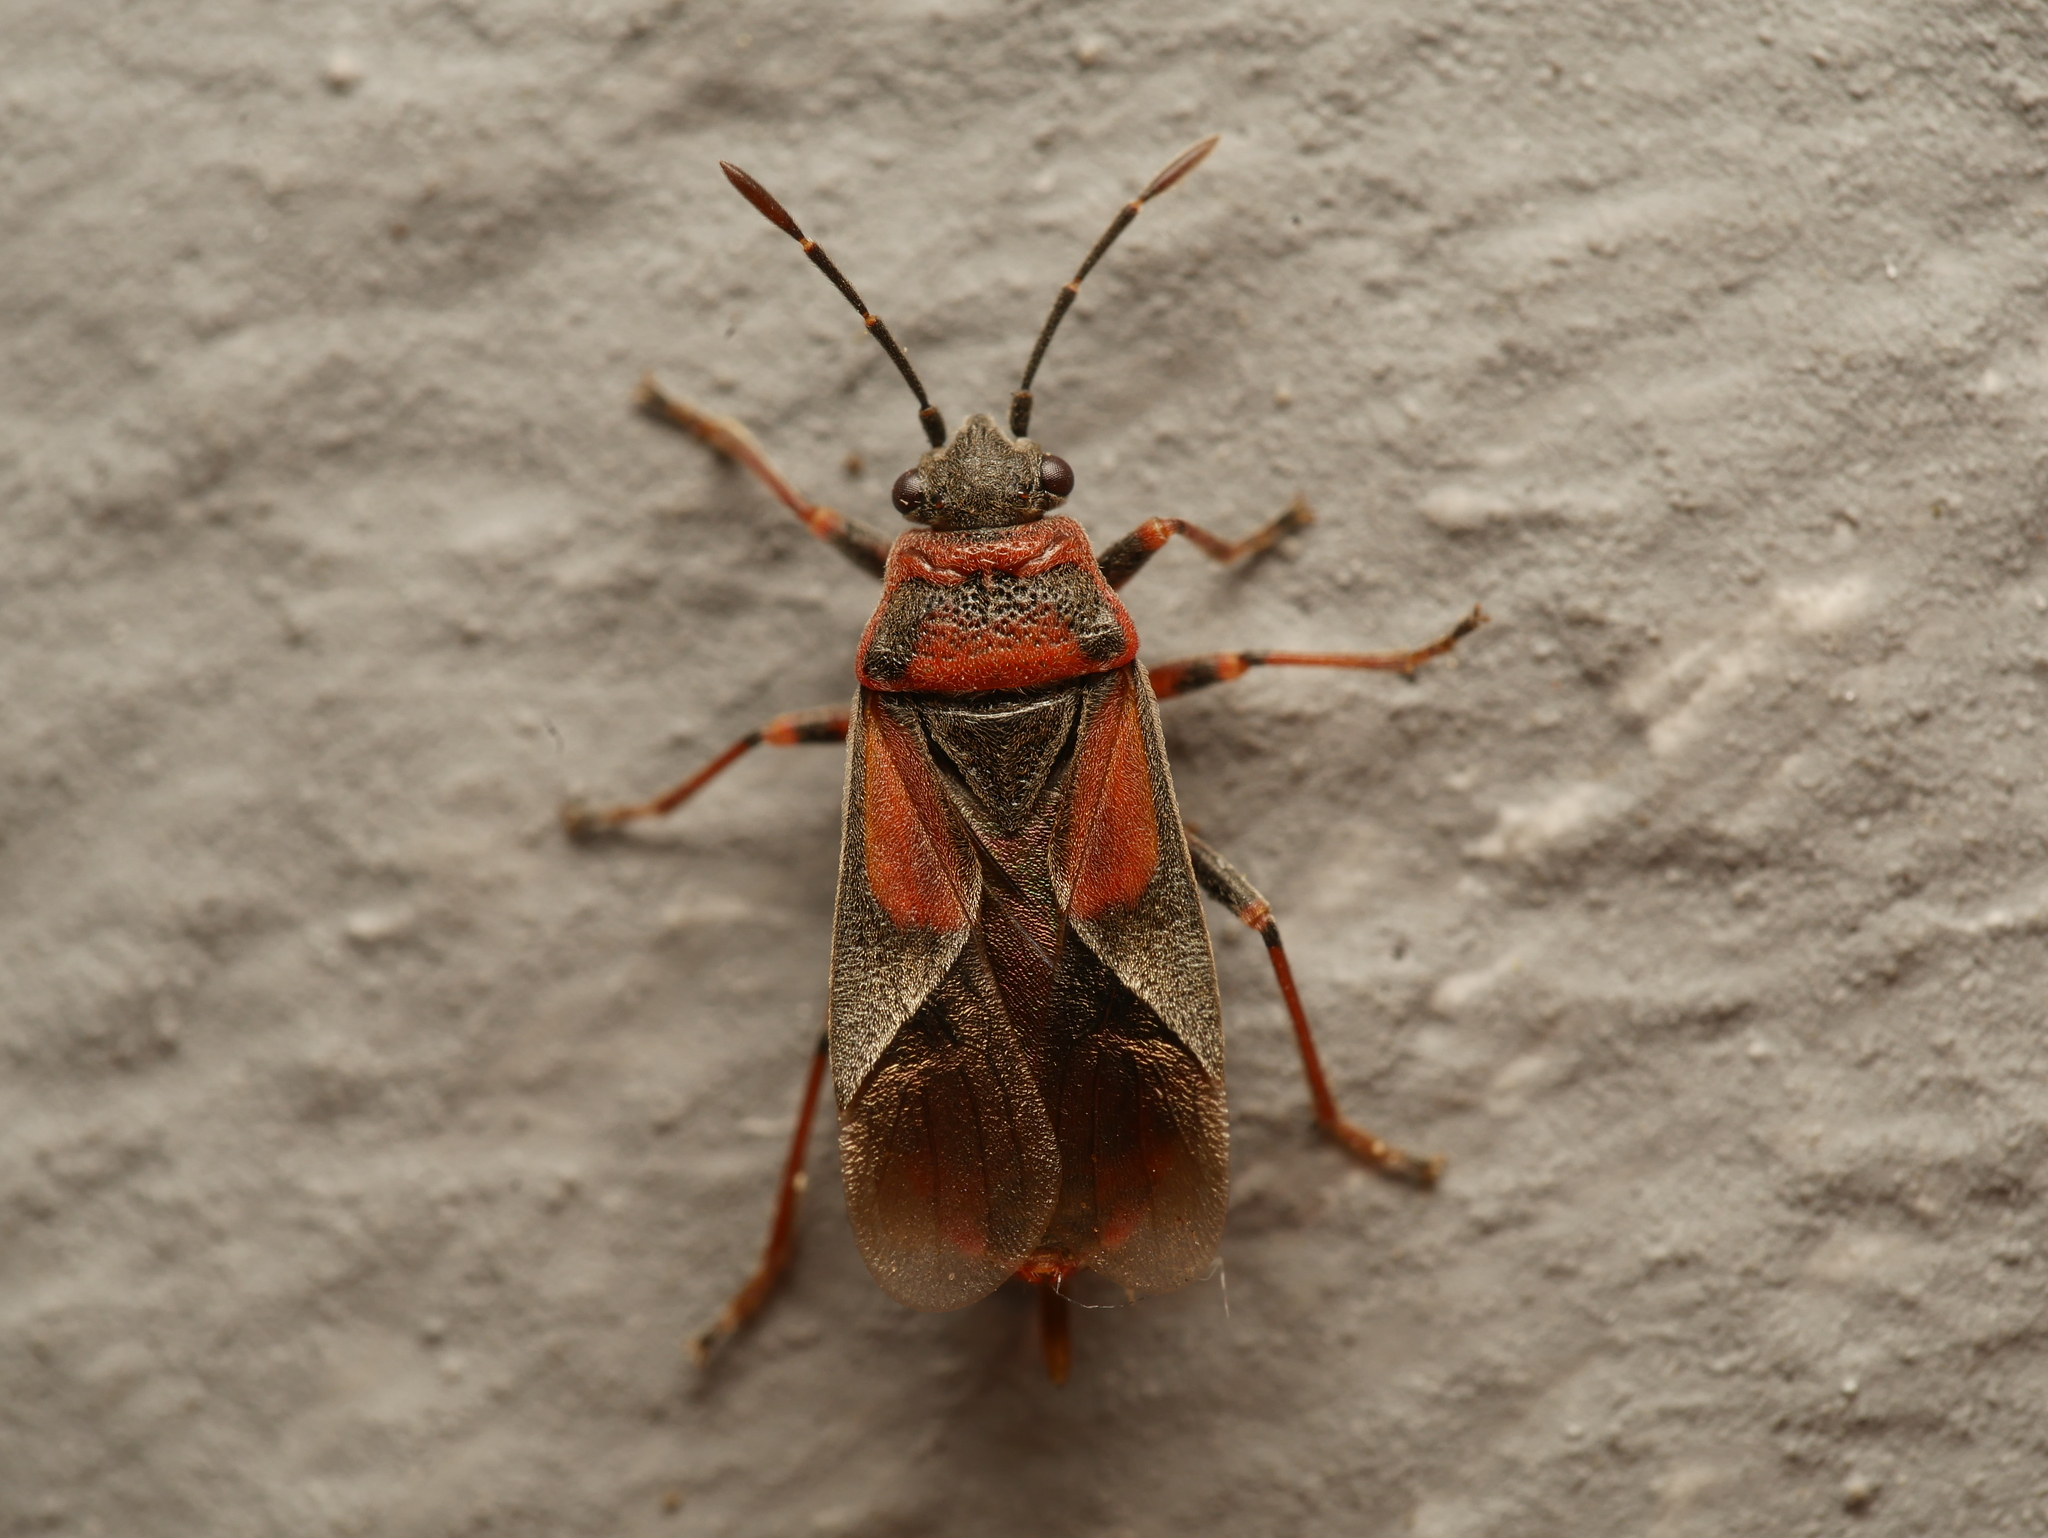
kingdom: Animalia
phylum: Arthropoda
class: Insecta
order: Hemiptera
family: Lygaeidae
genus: Arocatus
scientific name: Arocatus melanocephalus
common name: Lygaeid bug
